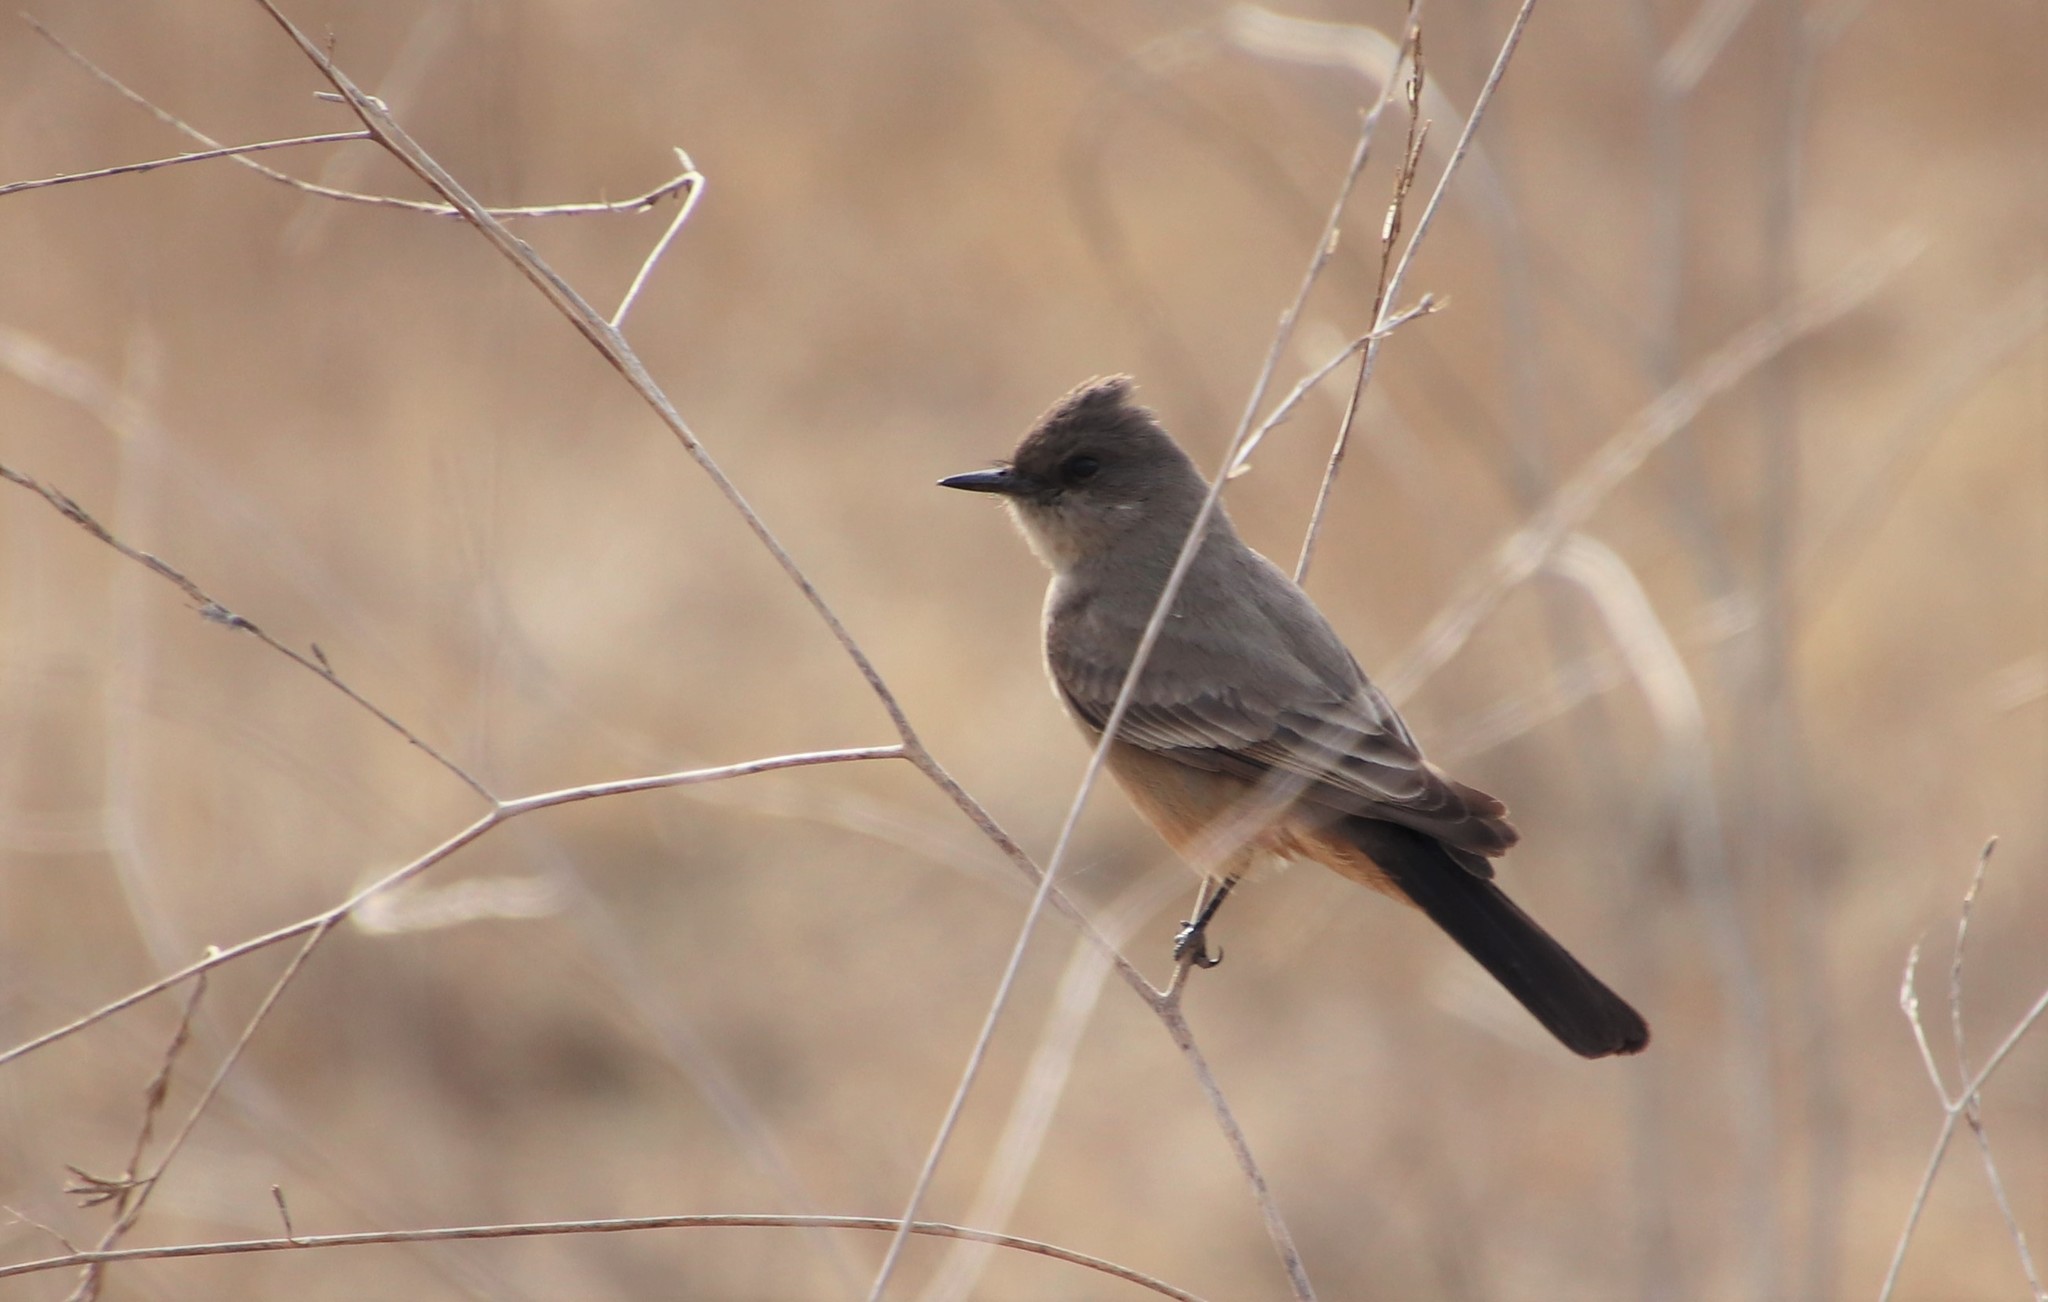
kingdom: Animalia
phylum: Chordata
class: Aves
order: Passeriformes
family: Tyrannidae
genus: Sayornis
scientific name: Sayornis saya
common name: Say's phoebe
